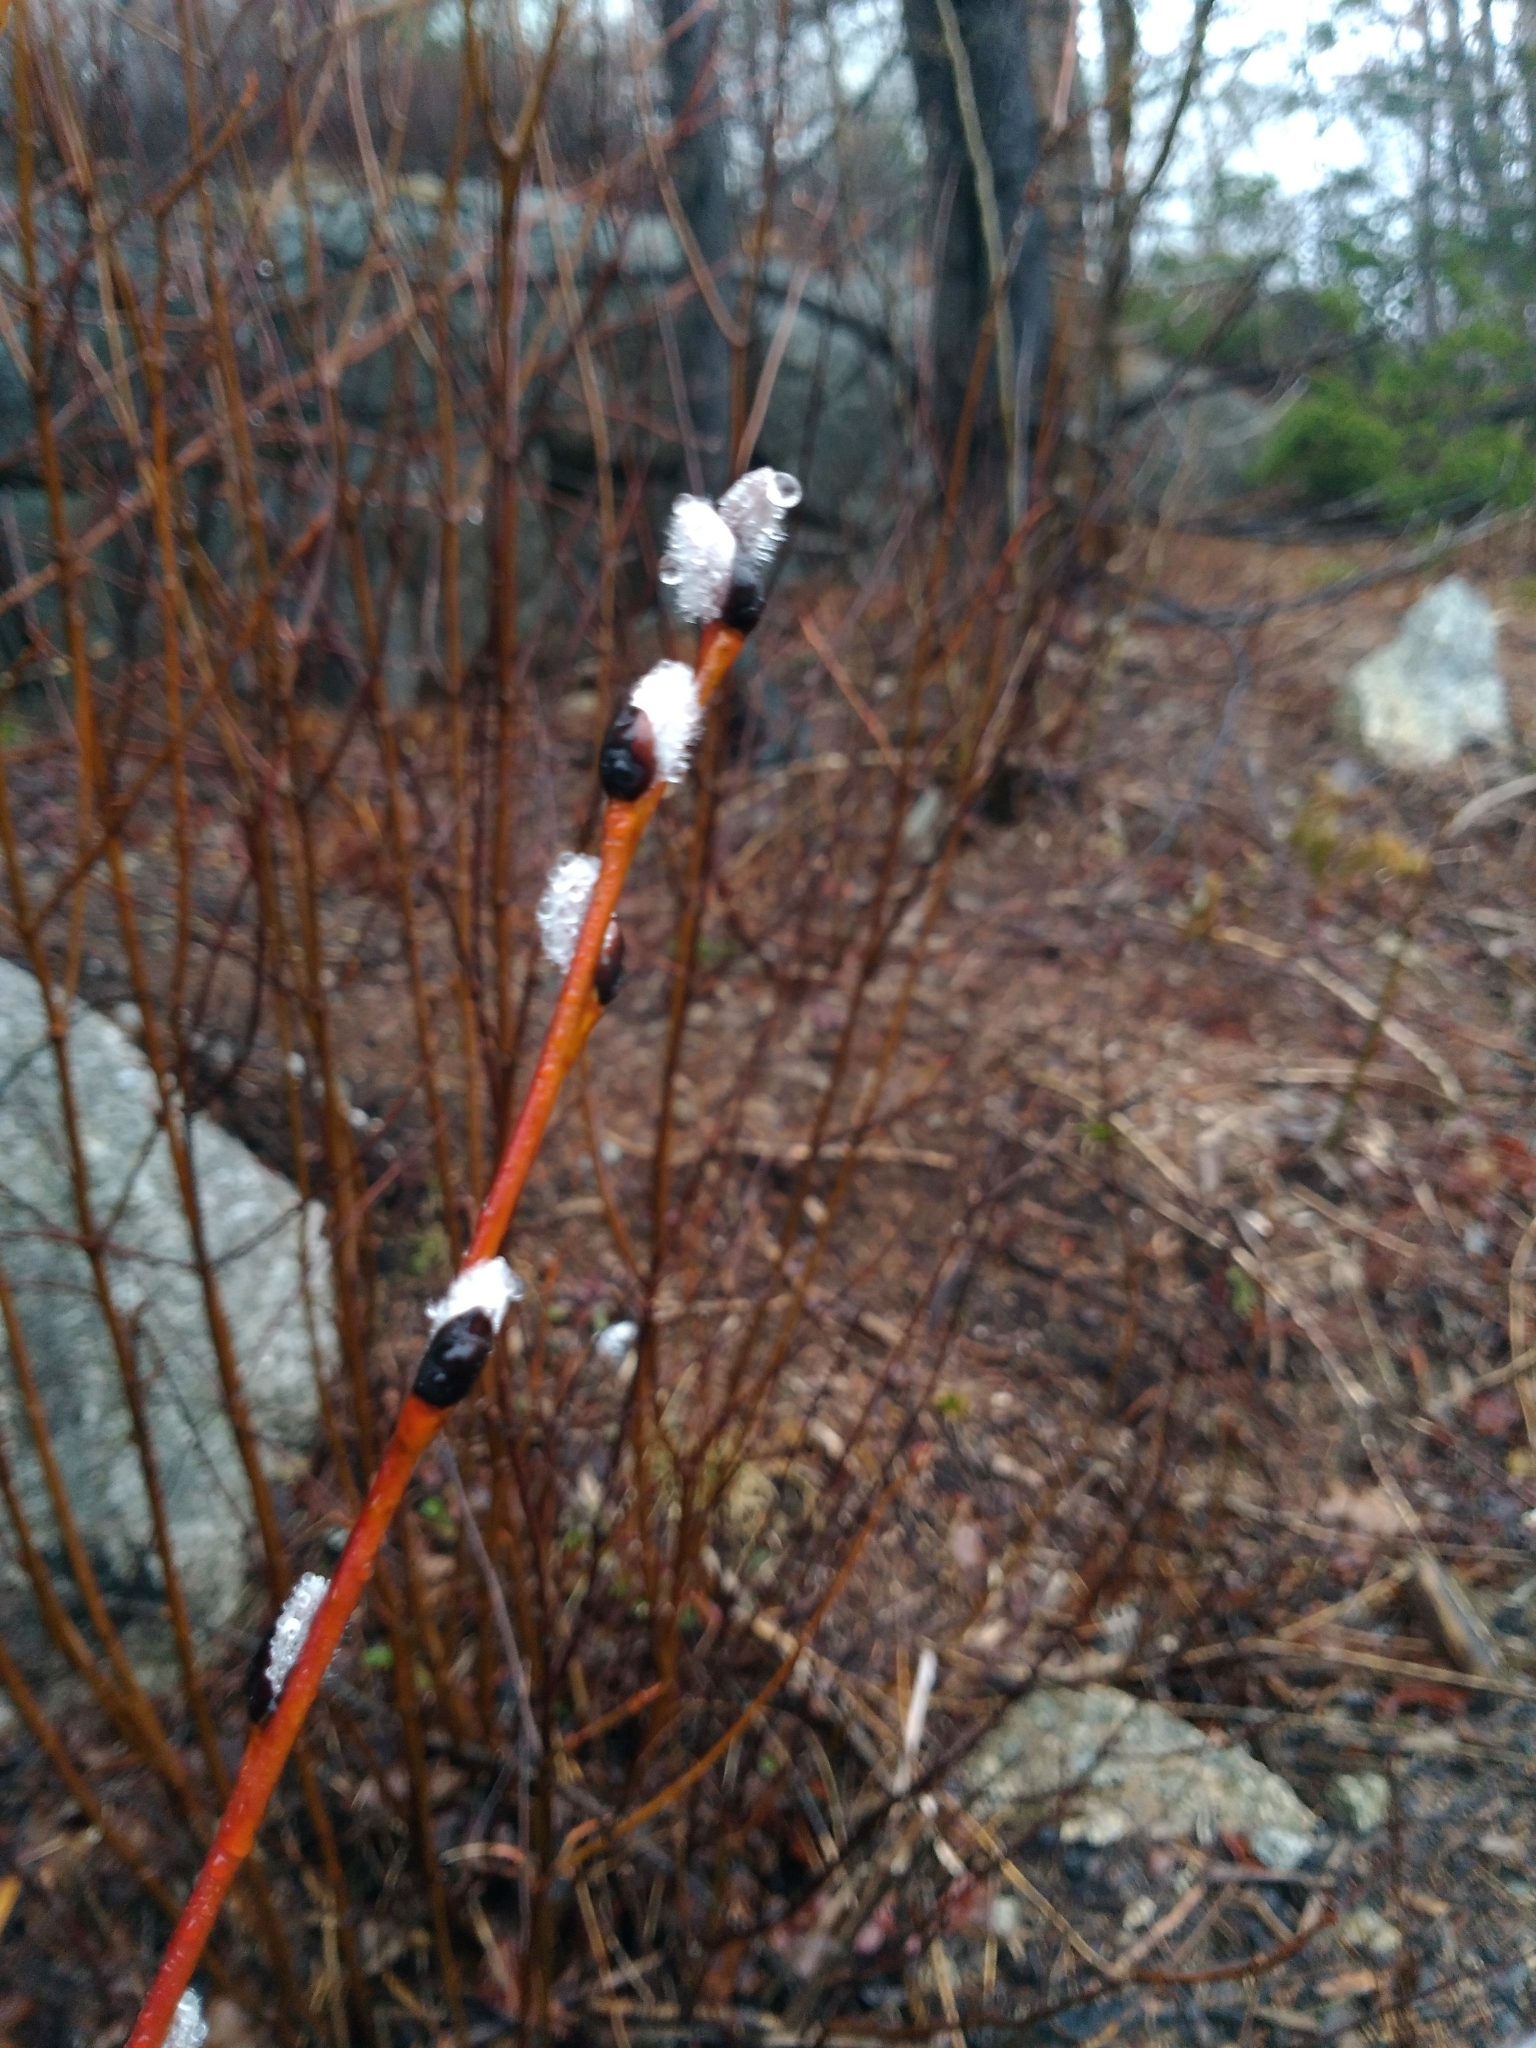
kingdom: Plantae
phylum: Tracheophyta
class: Magnoliopsida
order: Malpighiales
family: Salicaceae
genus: Salix
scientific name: Salix discolor
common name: Glaucous willow
